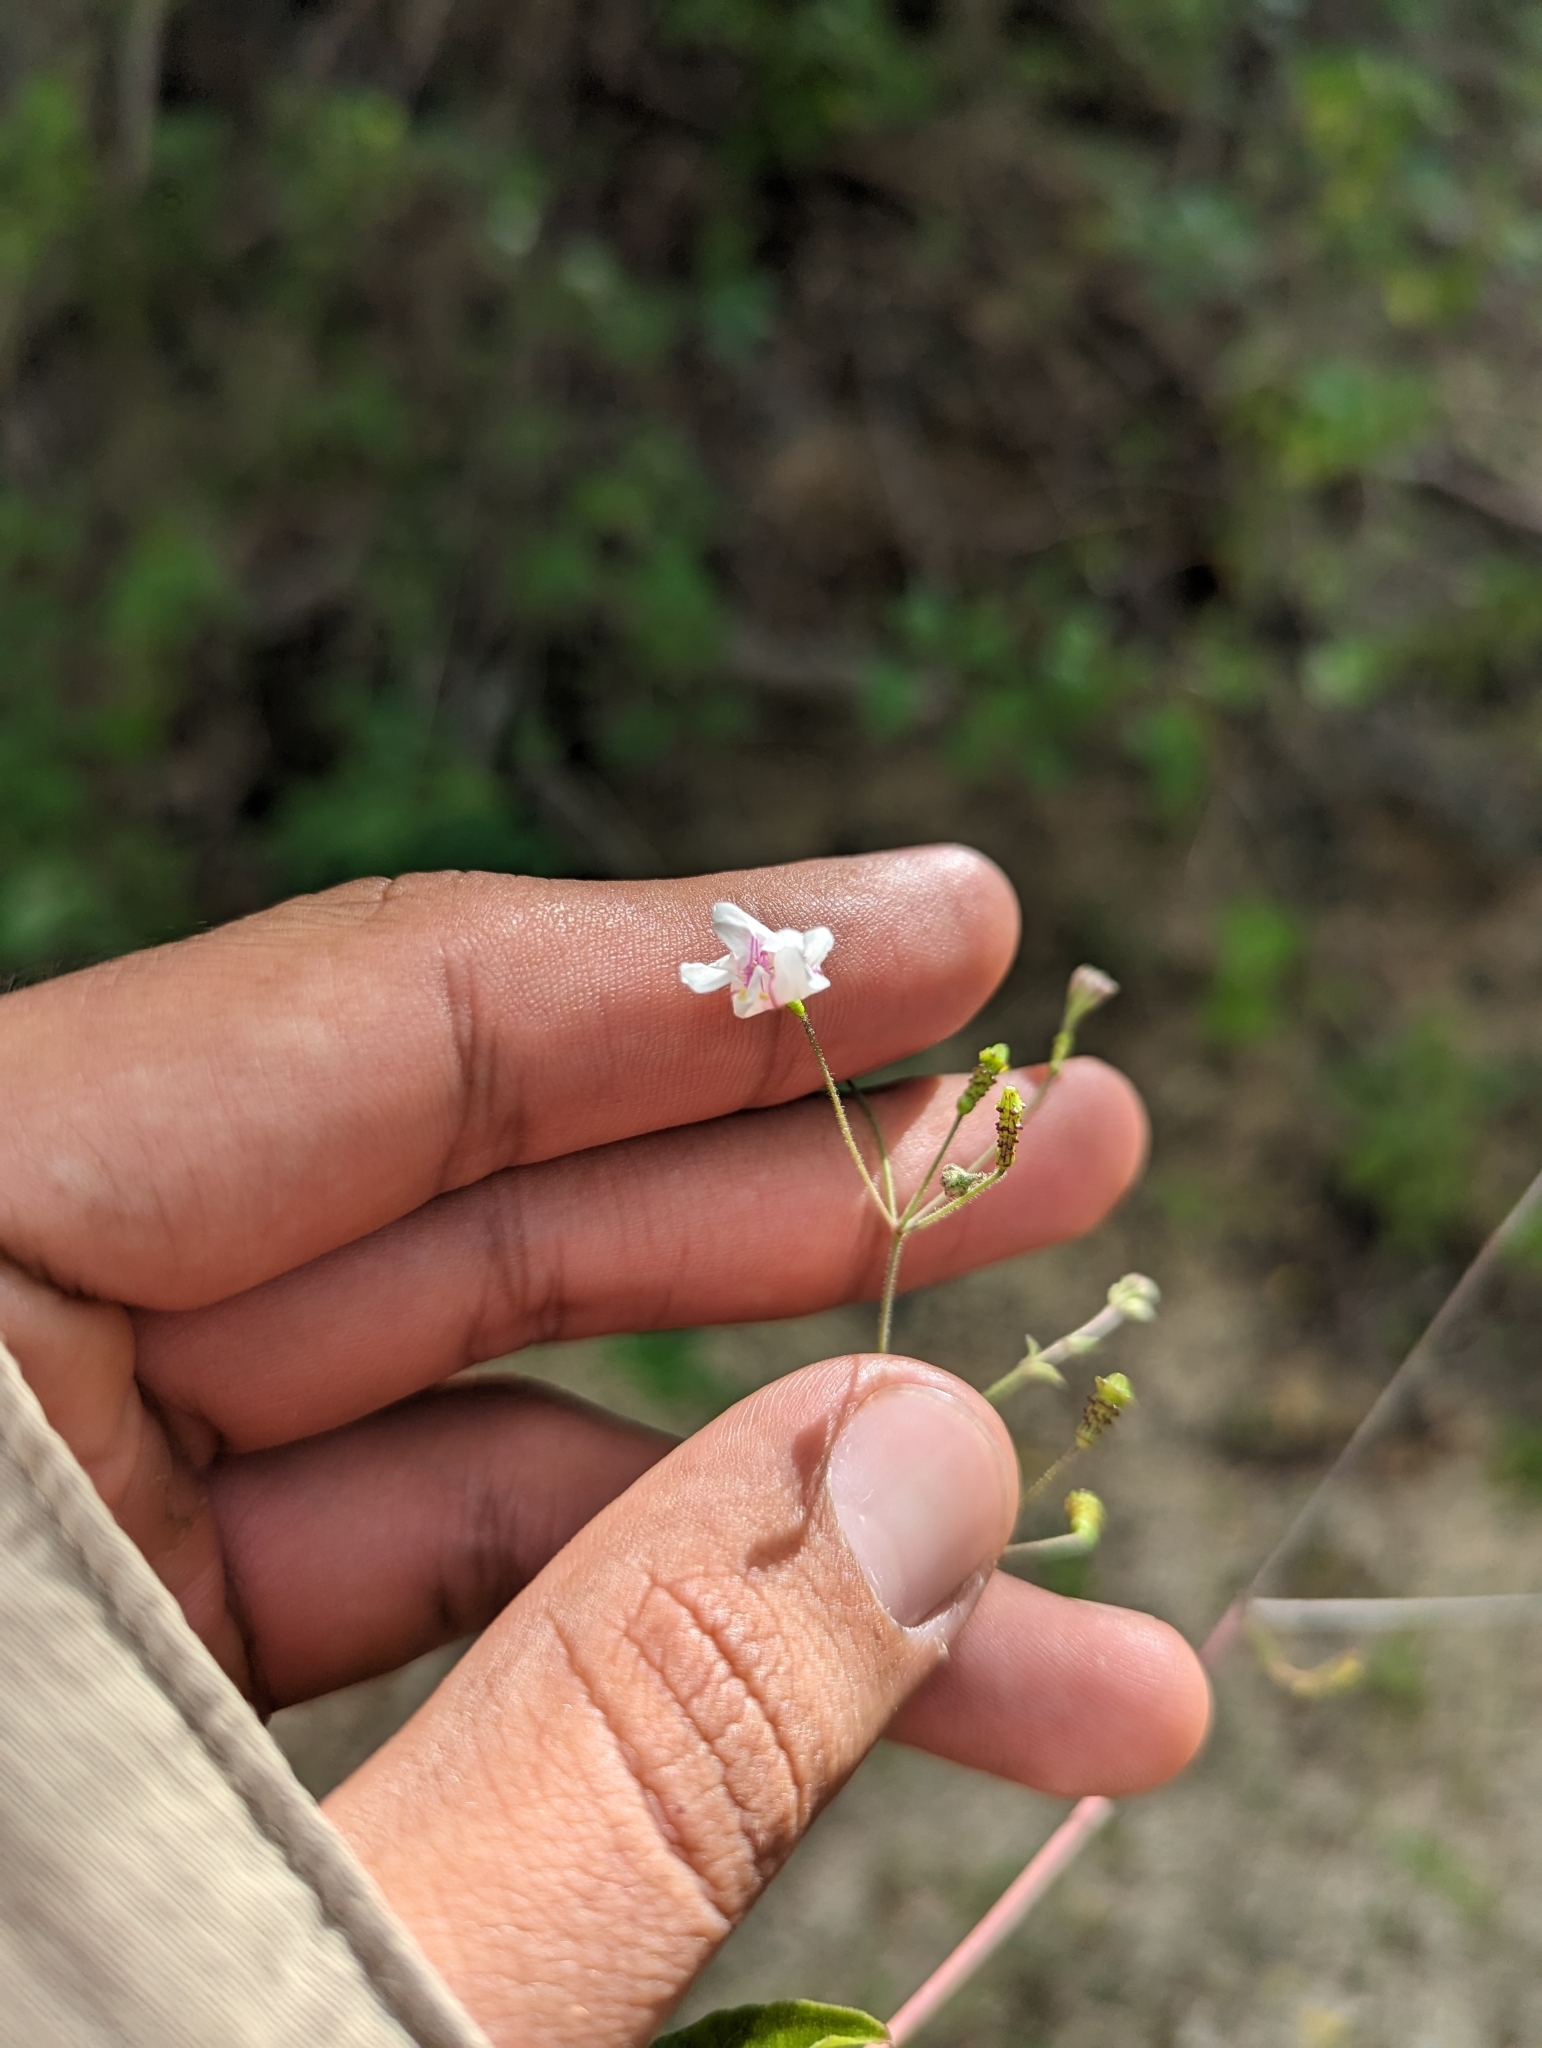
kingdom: Plantae
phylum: Tracheophyta
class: Magnoliopsida
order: Caryophyllales
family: Nyctaginaceae
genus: Commicarpus
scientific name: Commicarpus brandegeei
